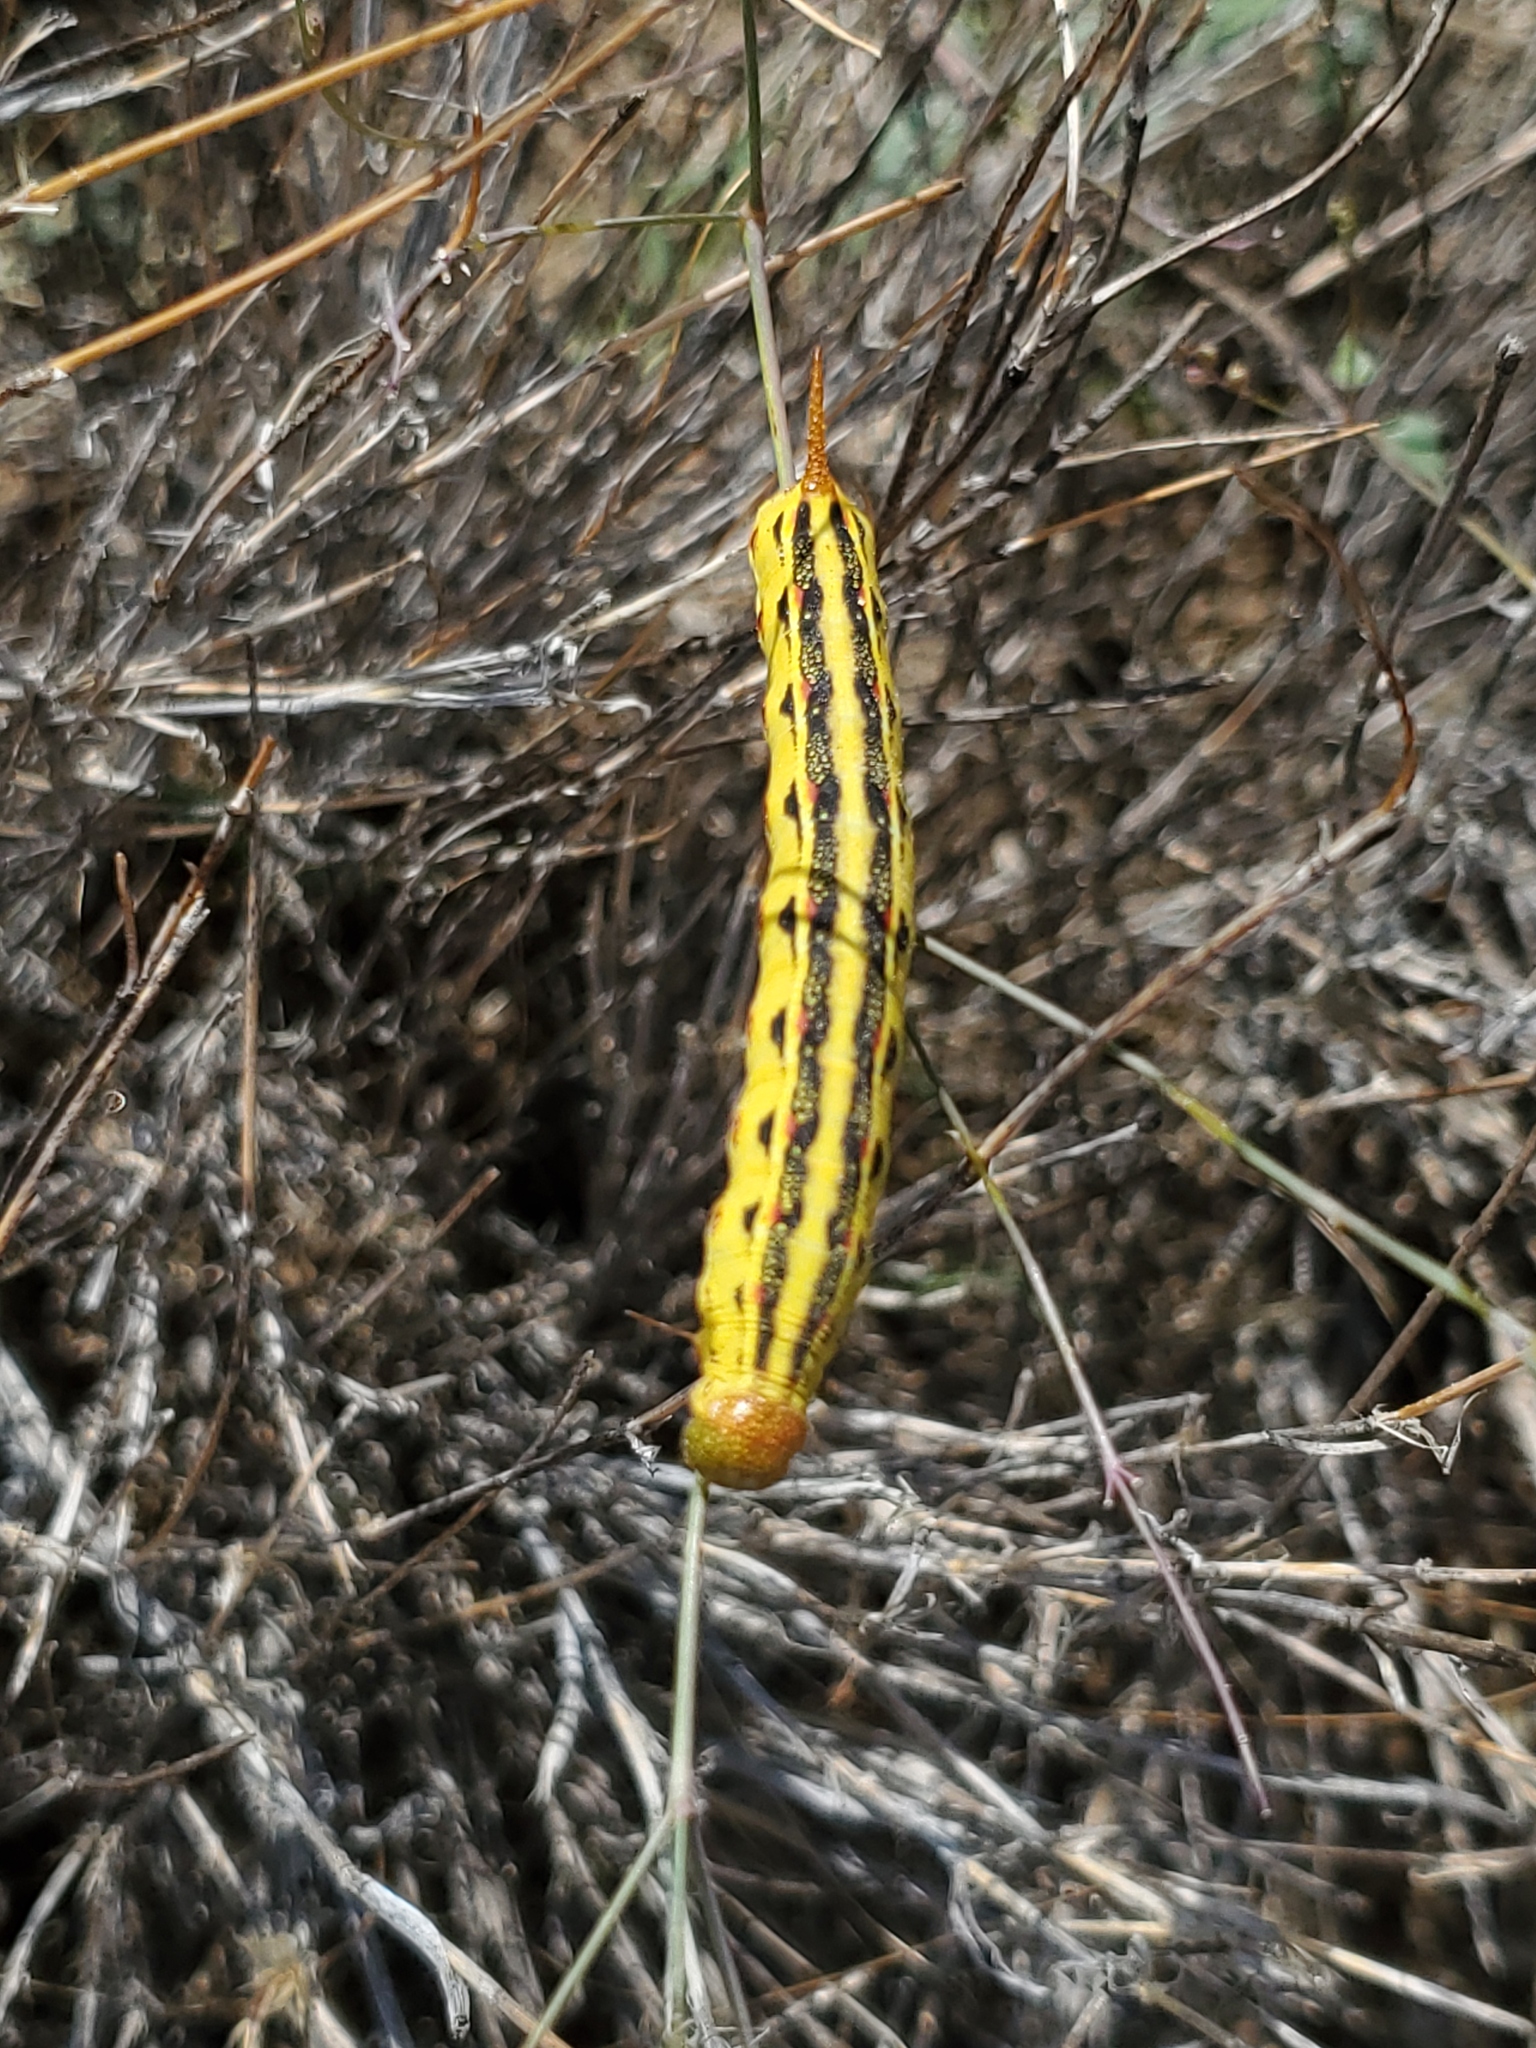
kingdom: Animalia
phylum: Arthropoda
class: Insecta
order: Lepidoptera
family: Sphingidae
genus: Hyles
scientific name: Hyles lineata
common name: White-lined sphinx
